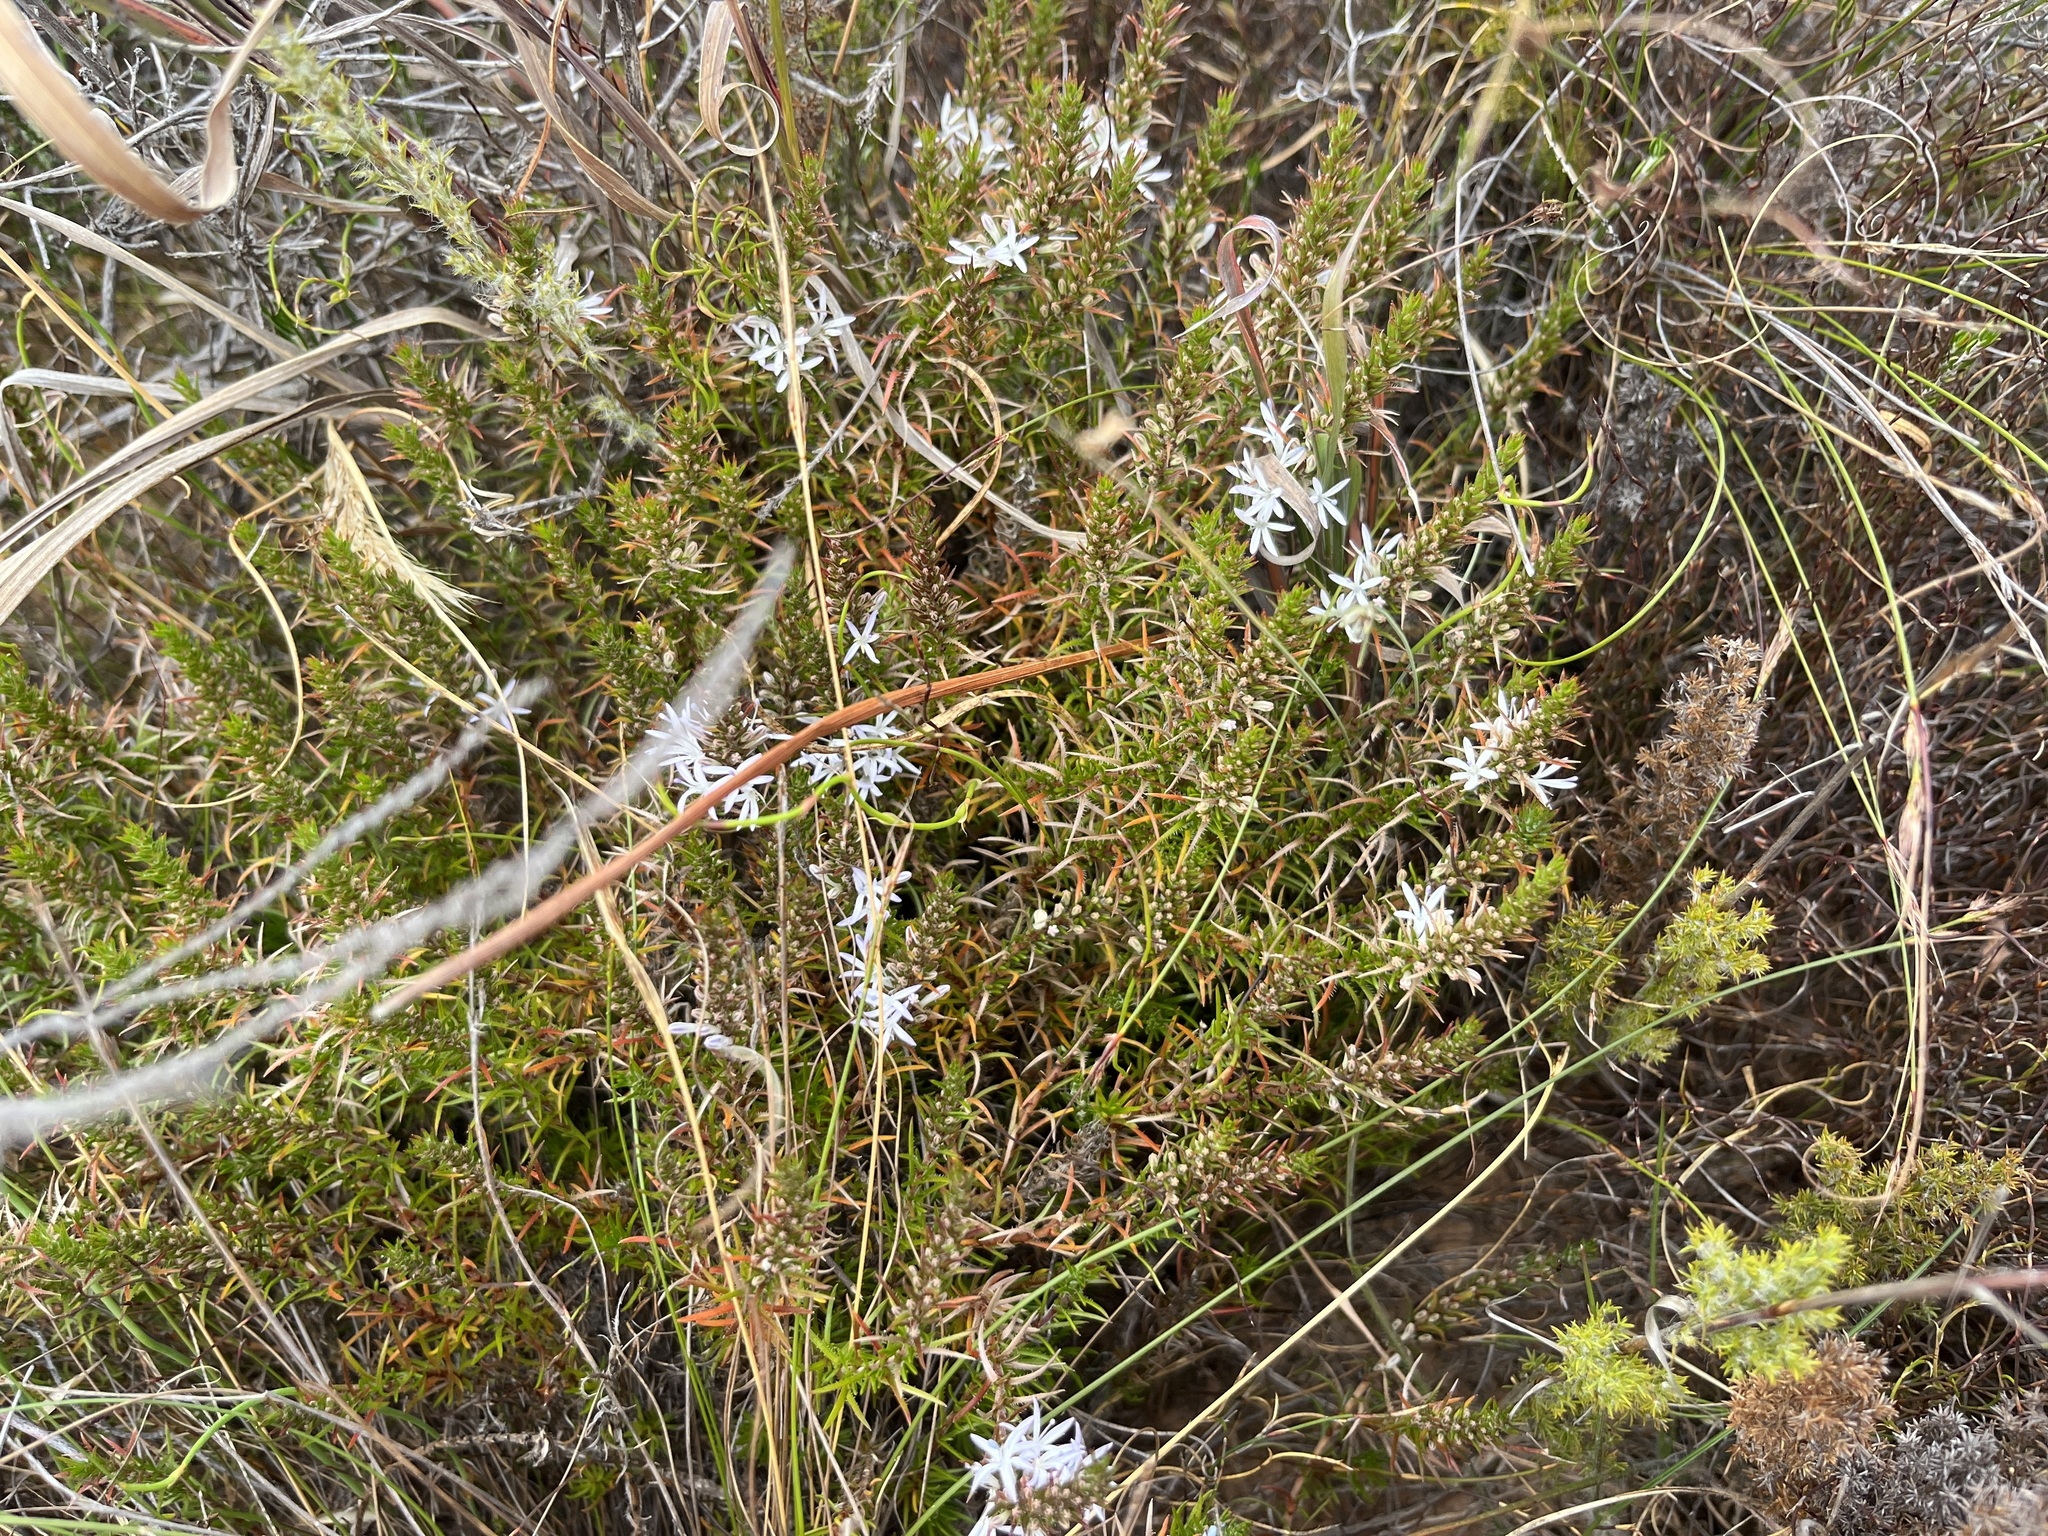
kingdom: Plantae
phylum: Tracheophyta
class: Magnoliopsida
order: Asterales
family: Campanulaceae
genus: Merciera
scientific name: Merciera leptoloba
